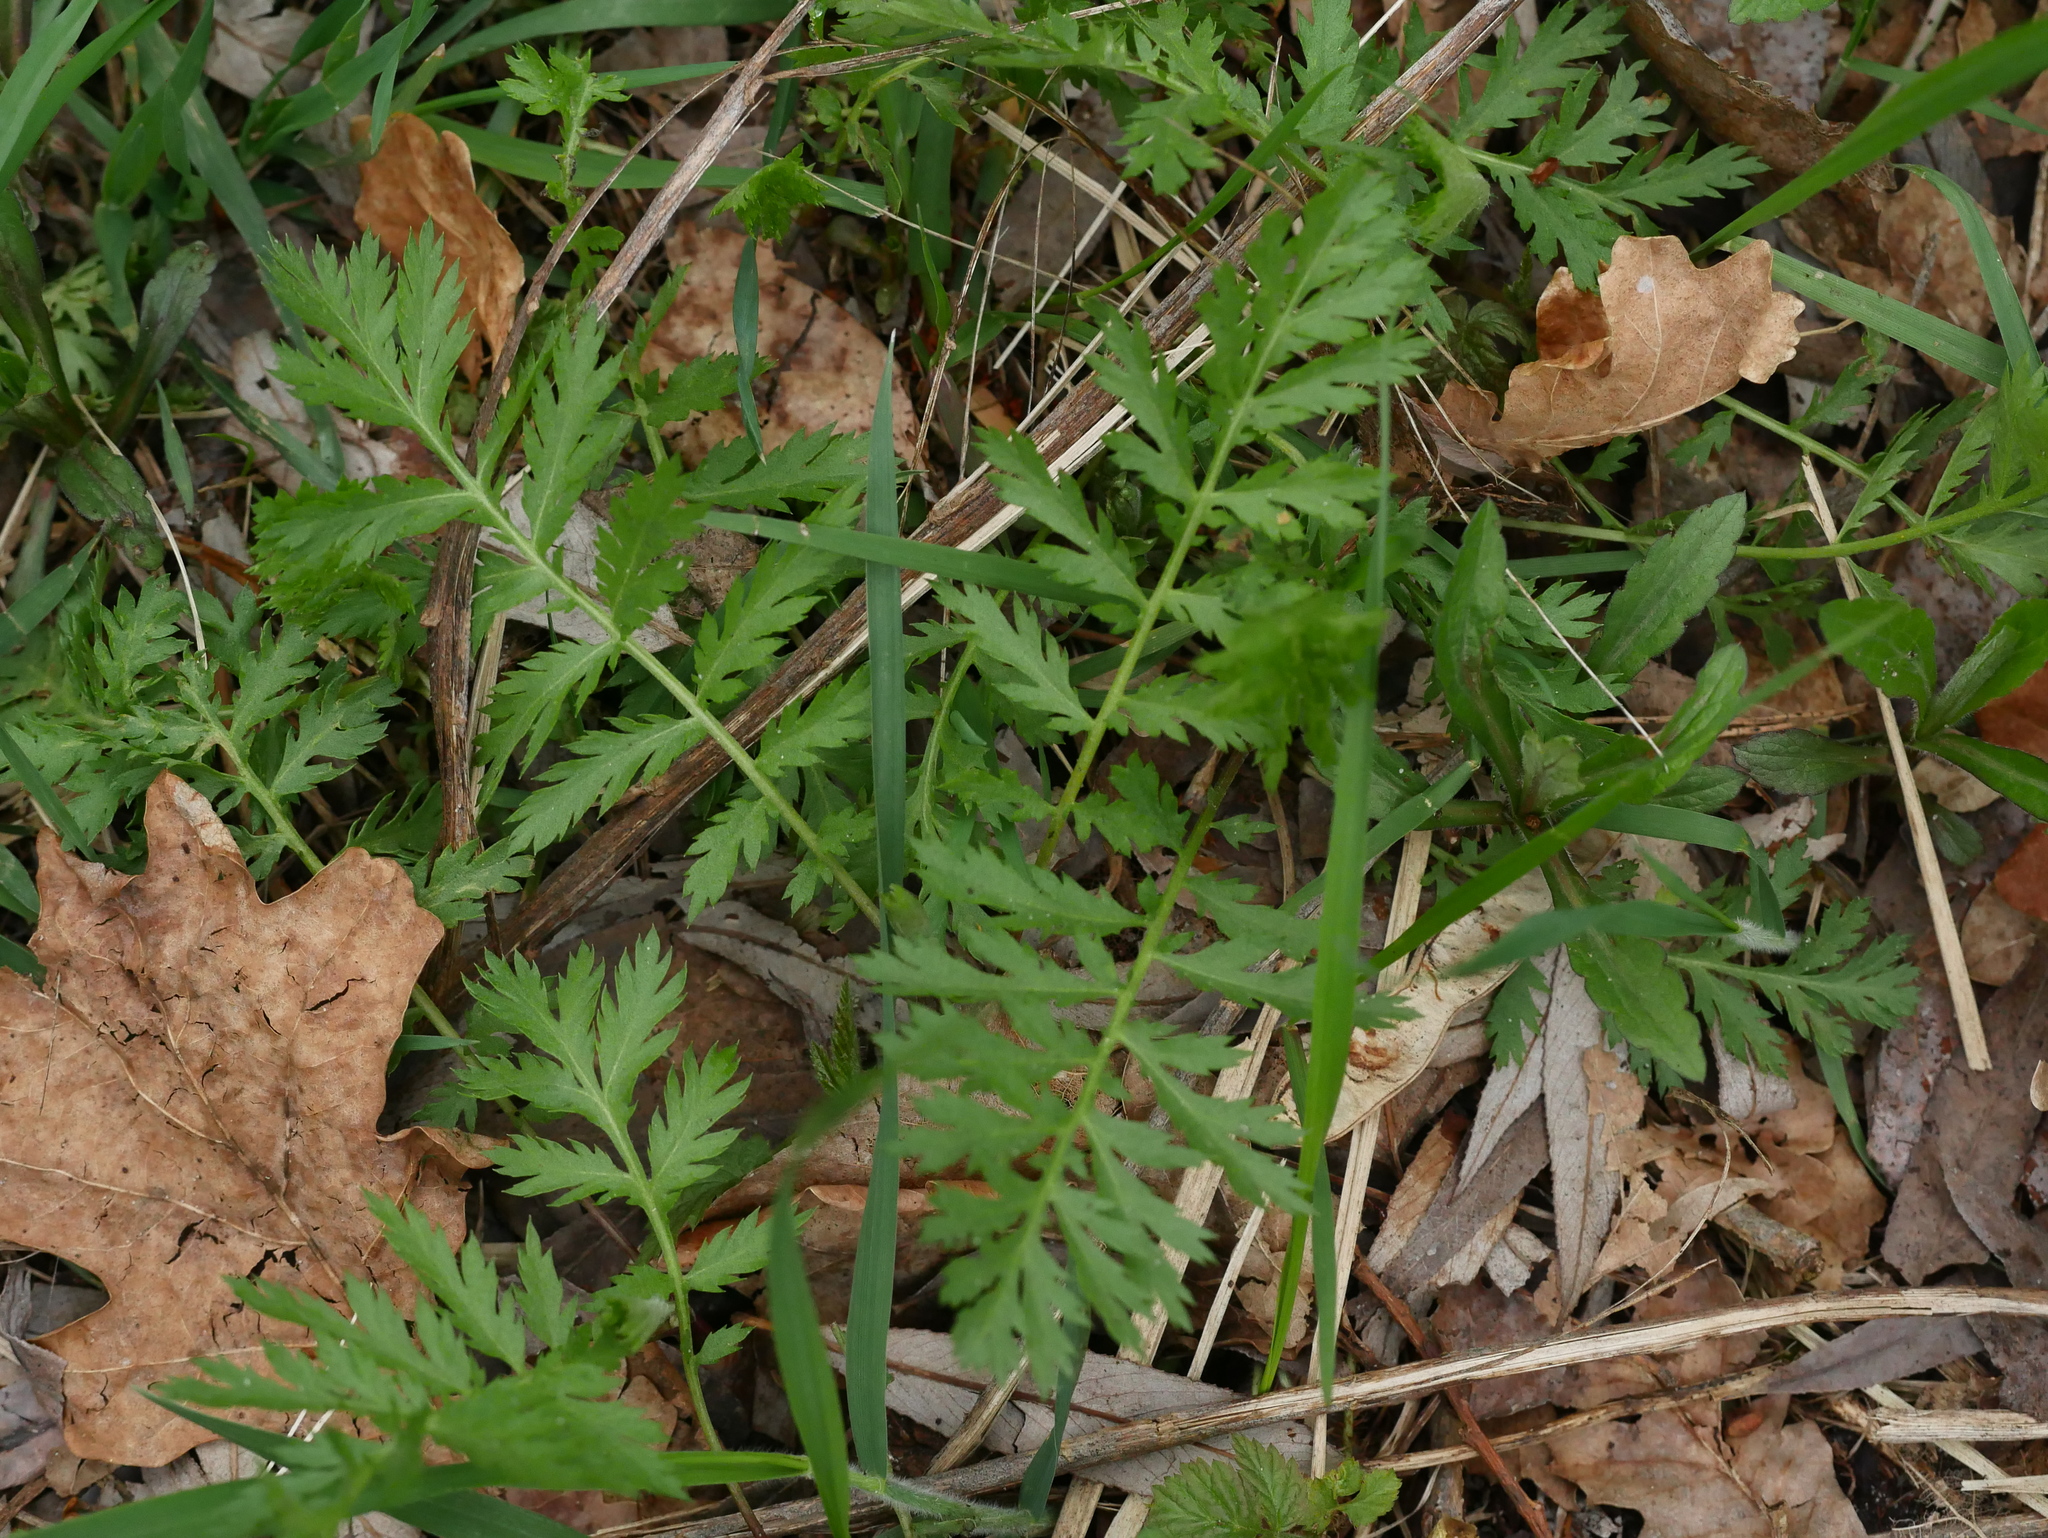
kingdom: Plantae
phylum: Tracheophyta
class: Magnoliopsida
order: Asterales
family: Asteraceae
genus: Tanacetum
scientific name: Tanacetum vulgare
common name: Common tansy
